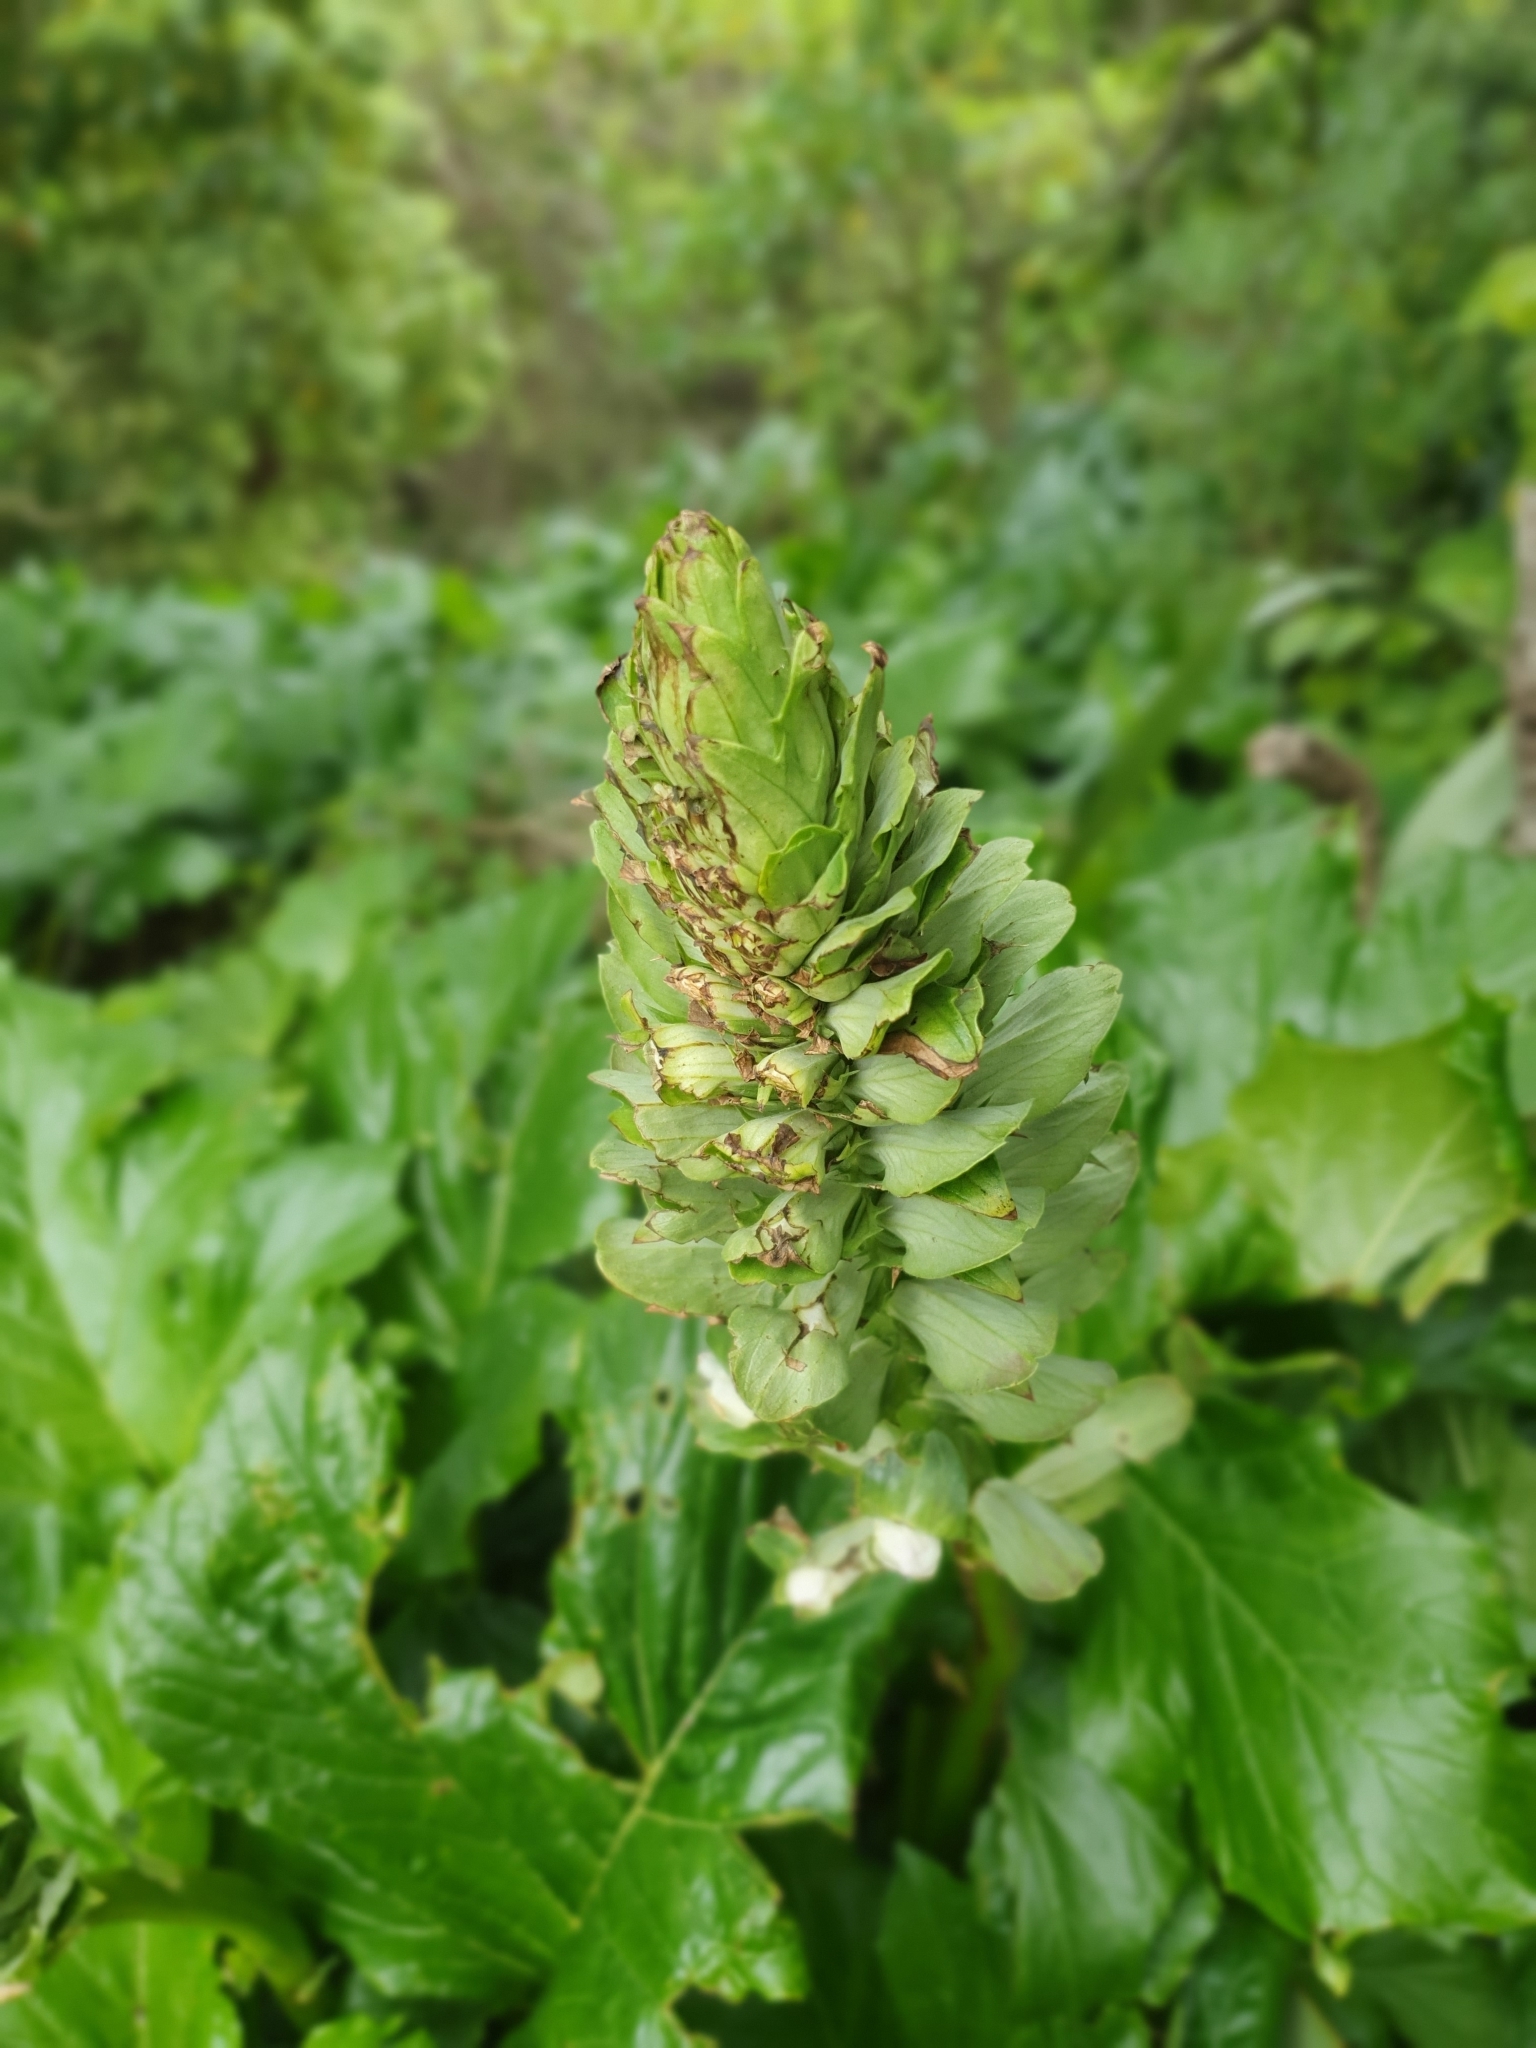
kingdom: Plantae
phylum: Tracheophyta
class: Magnoliopsida
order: Lamiales
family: Acanthaceae
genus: Acanthus
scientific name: Acanthus mollis
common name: Bear's-breech
